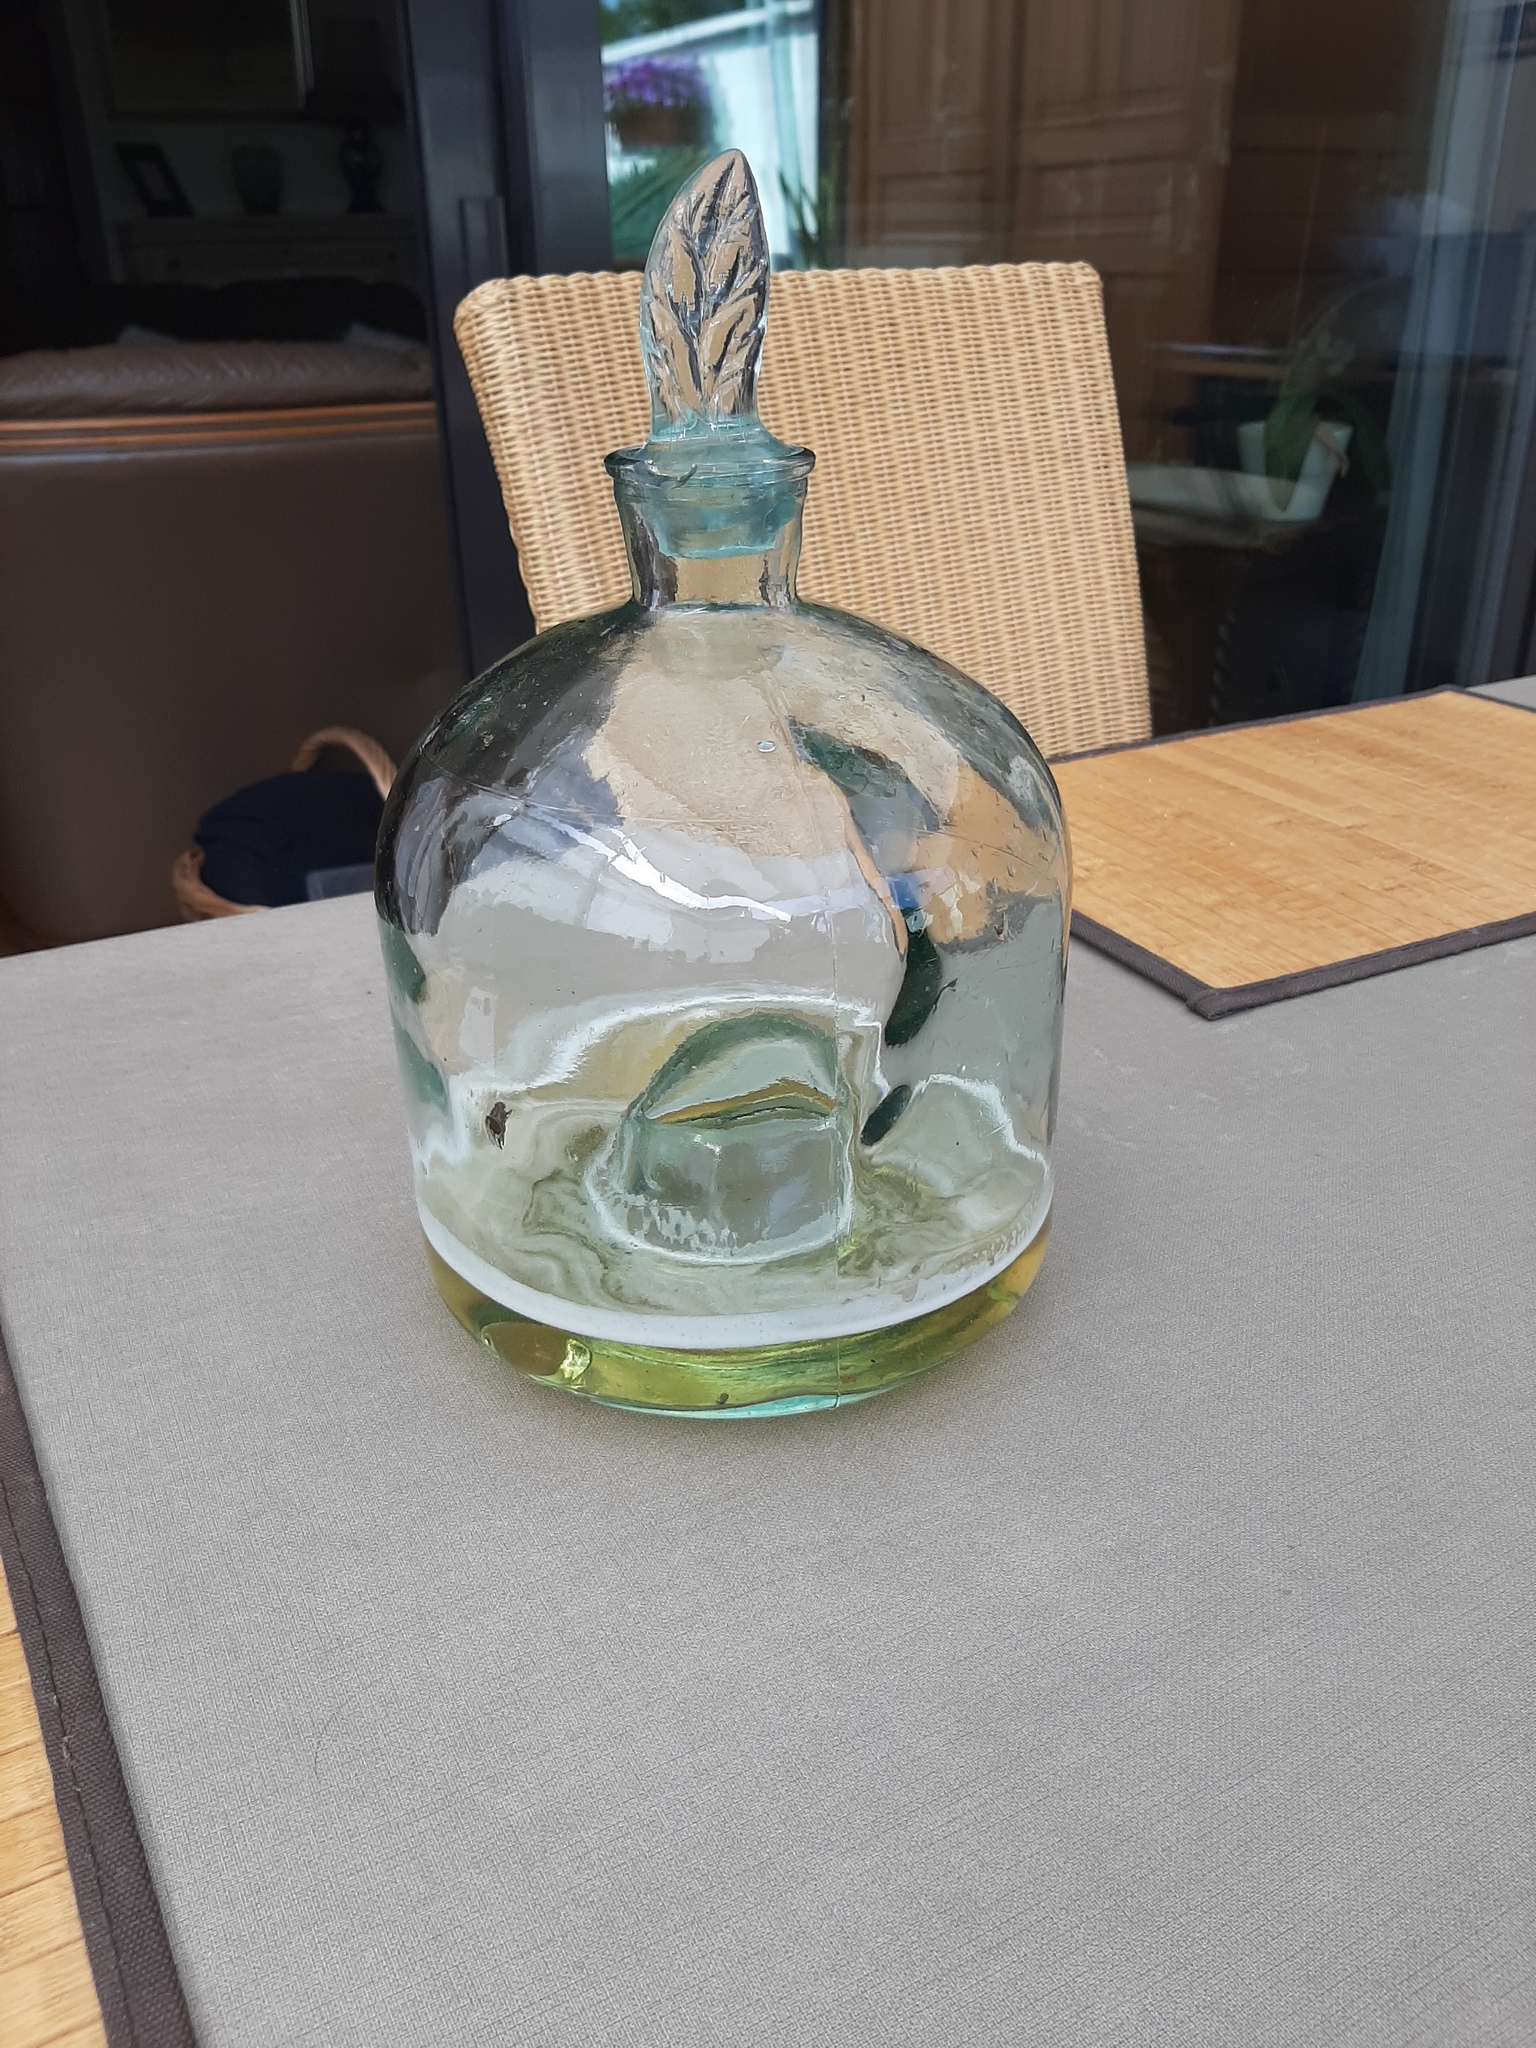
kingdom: Animalia
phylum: Arthropoda
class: Insecta
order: Hymenoptera
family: Vespidae
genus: Vespa
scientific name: Vespa crabro
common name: Hornet
